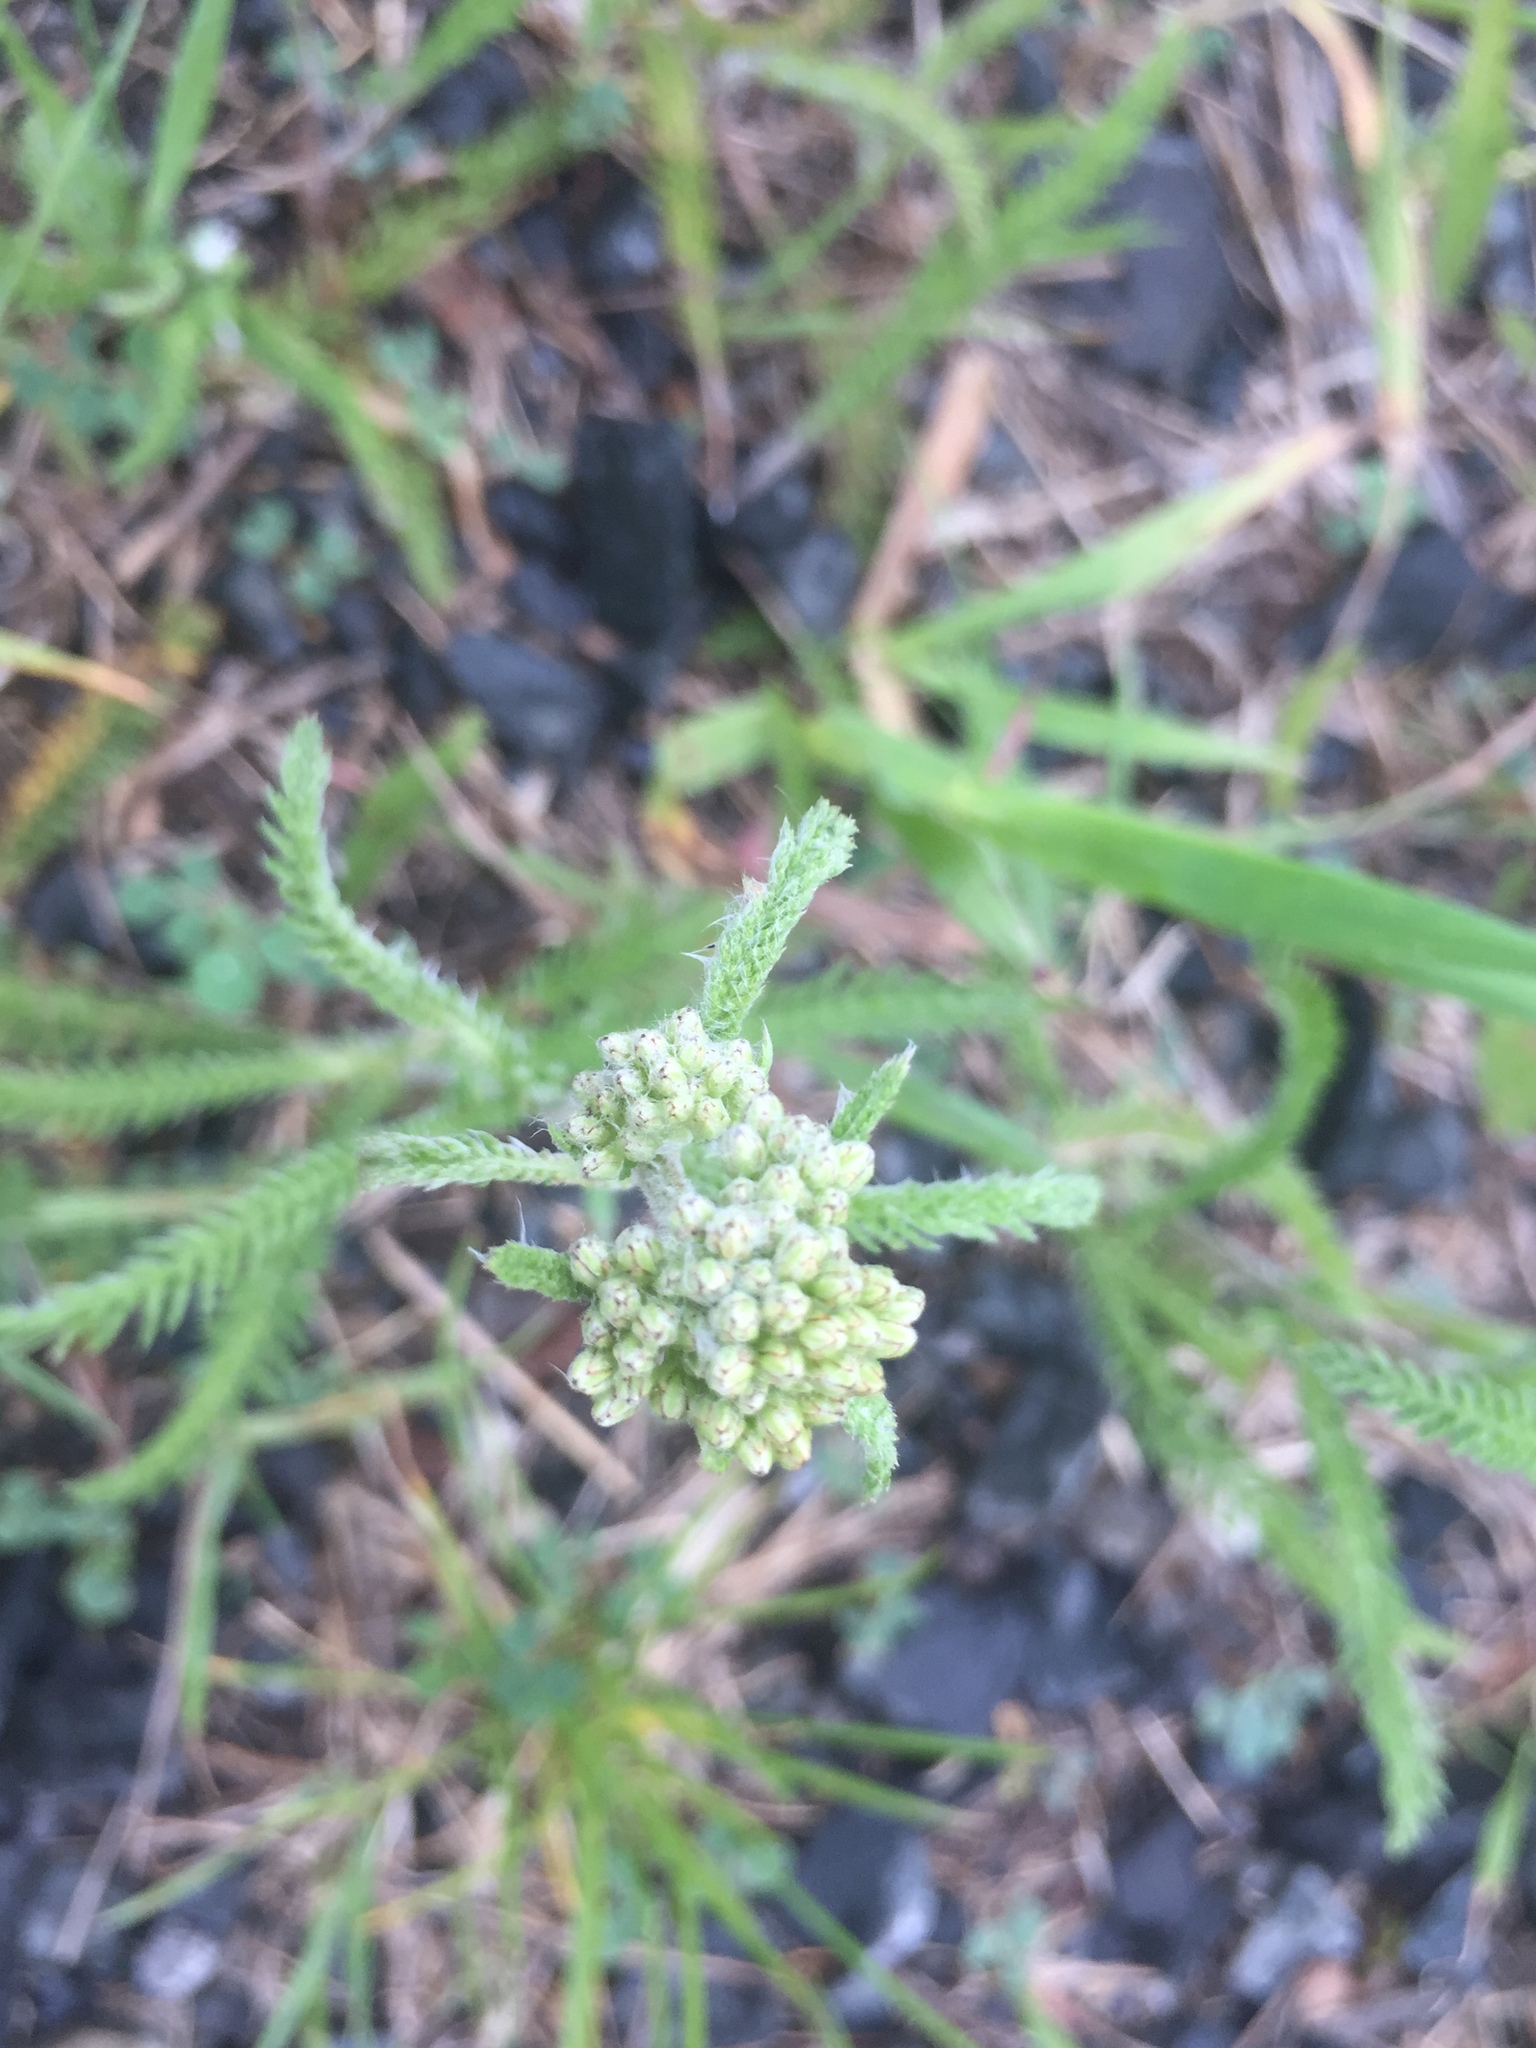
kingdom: Plantae
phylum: Tracheophyta
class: Magnoliopsida
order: Asterales
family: Asteraceae
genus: Achillea
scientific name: Achillea millefolium
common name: Yarrow
